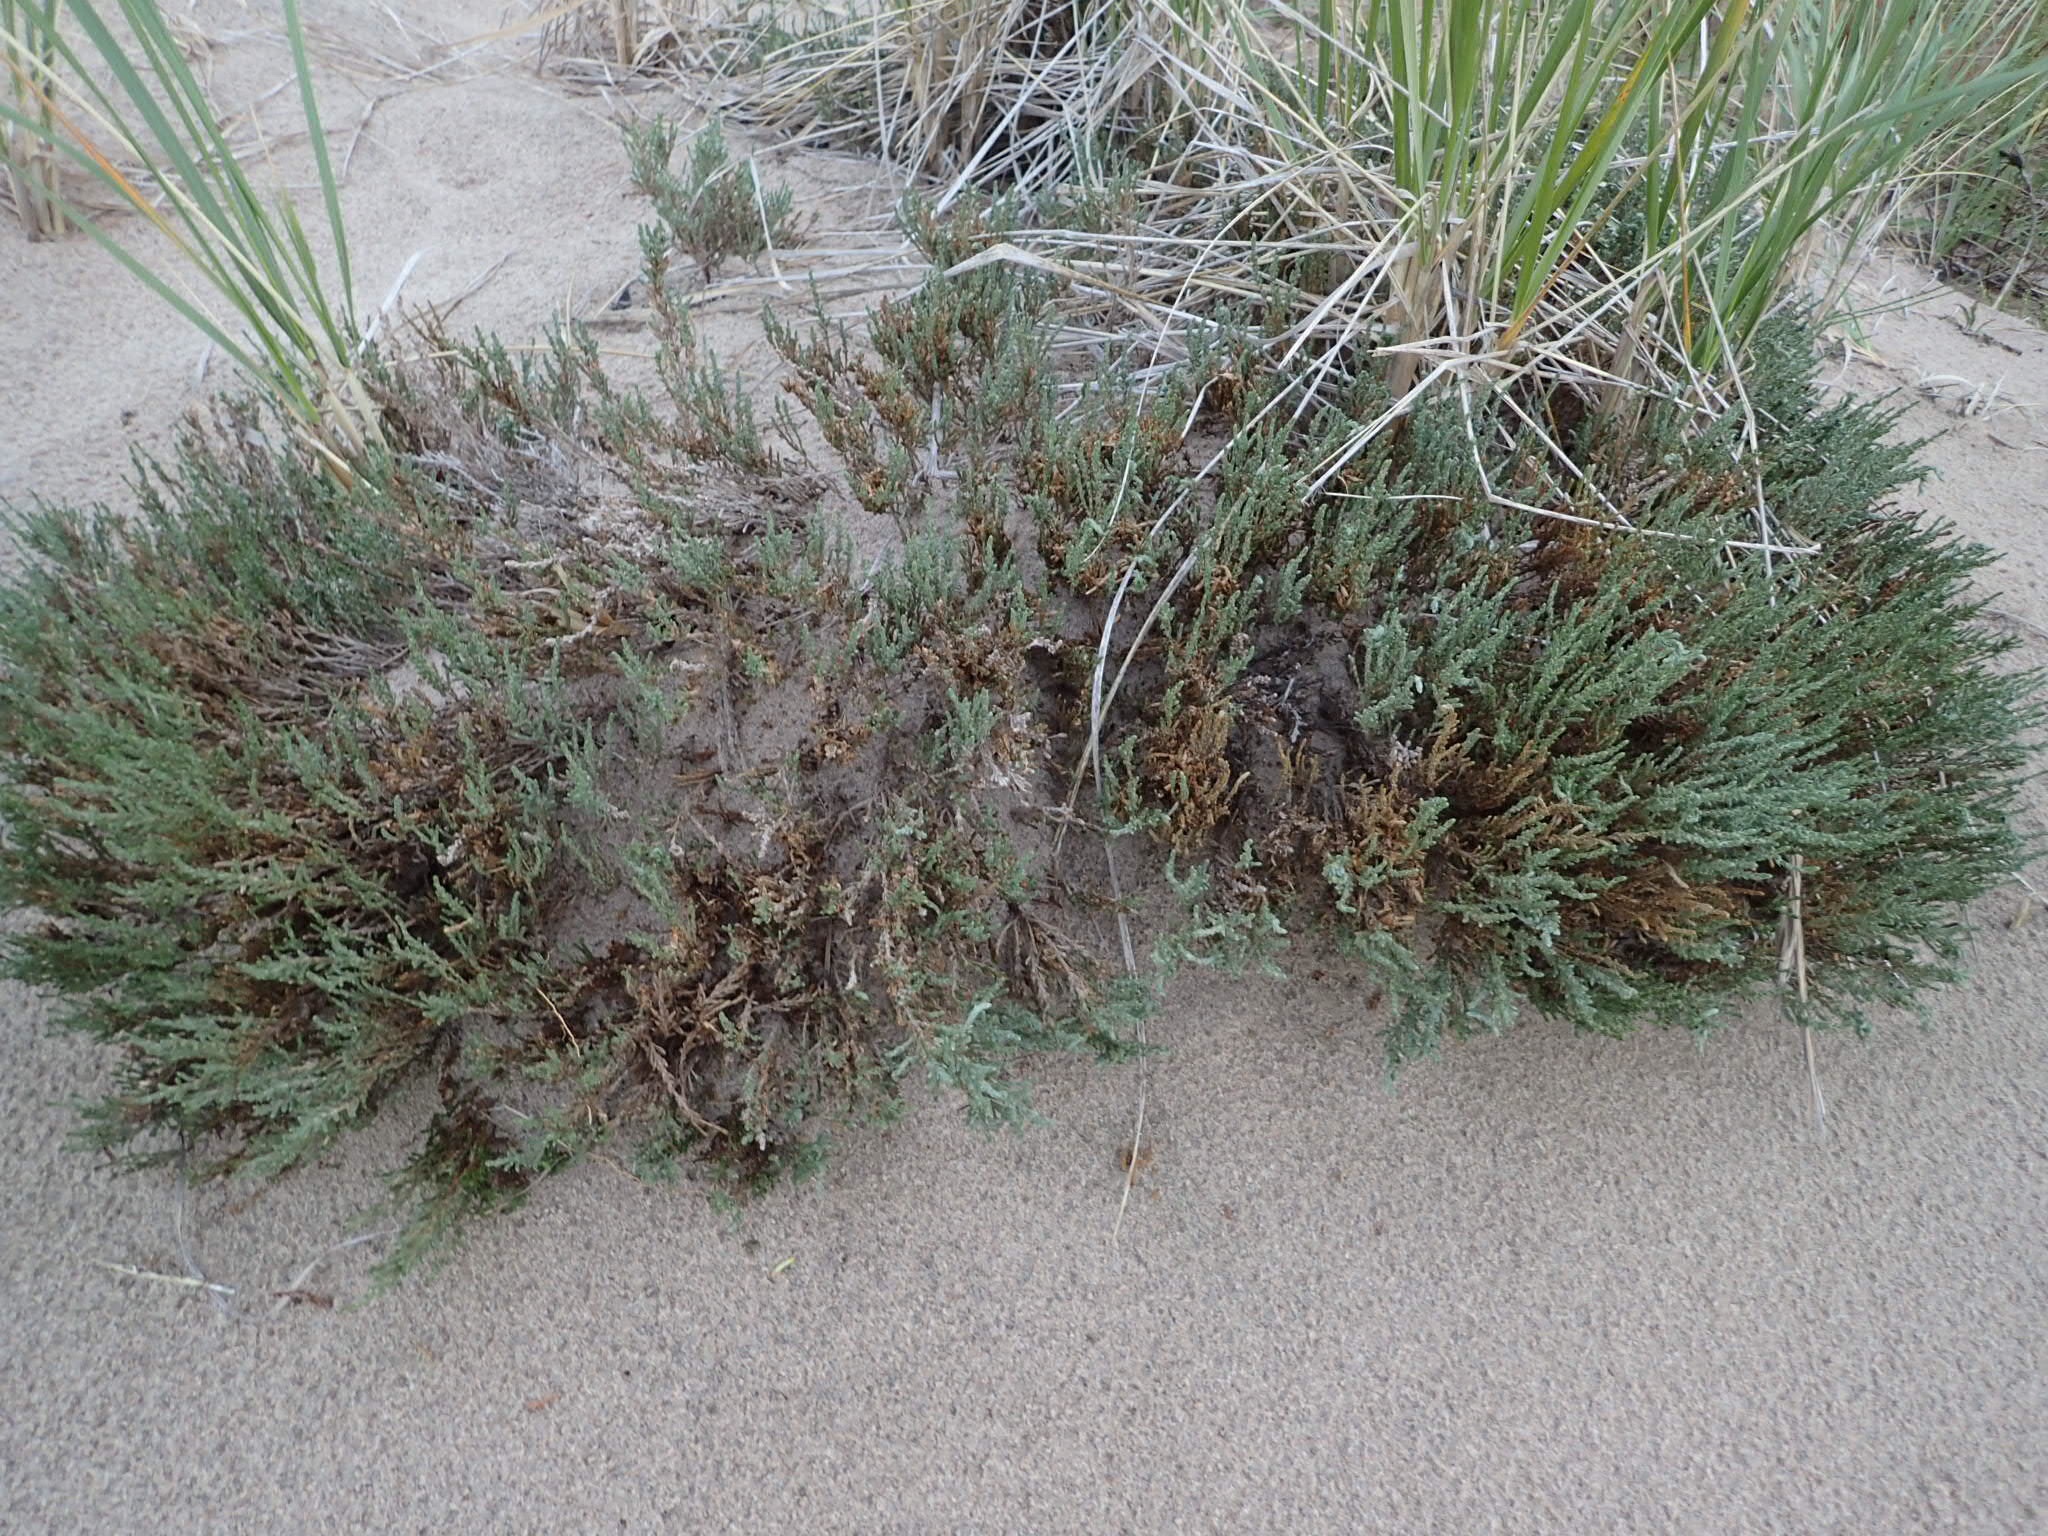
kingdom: Plantae
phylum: Tracheophyta
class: Magnoliopsida
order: Malvales
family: Cistaceae
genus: Hudsonia
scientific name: Hudsonia tomentosa
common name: Beach-heath
